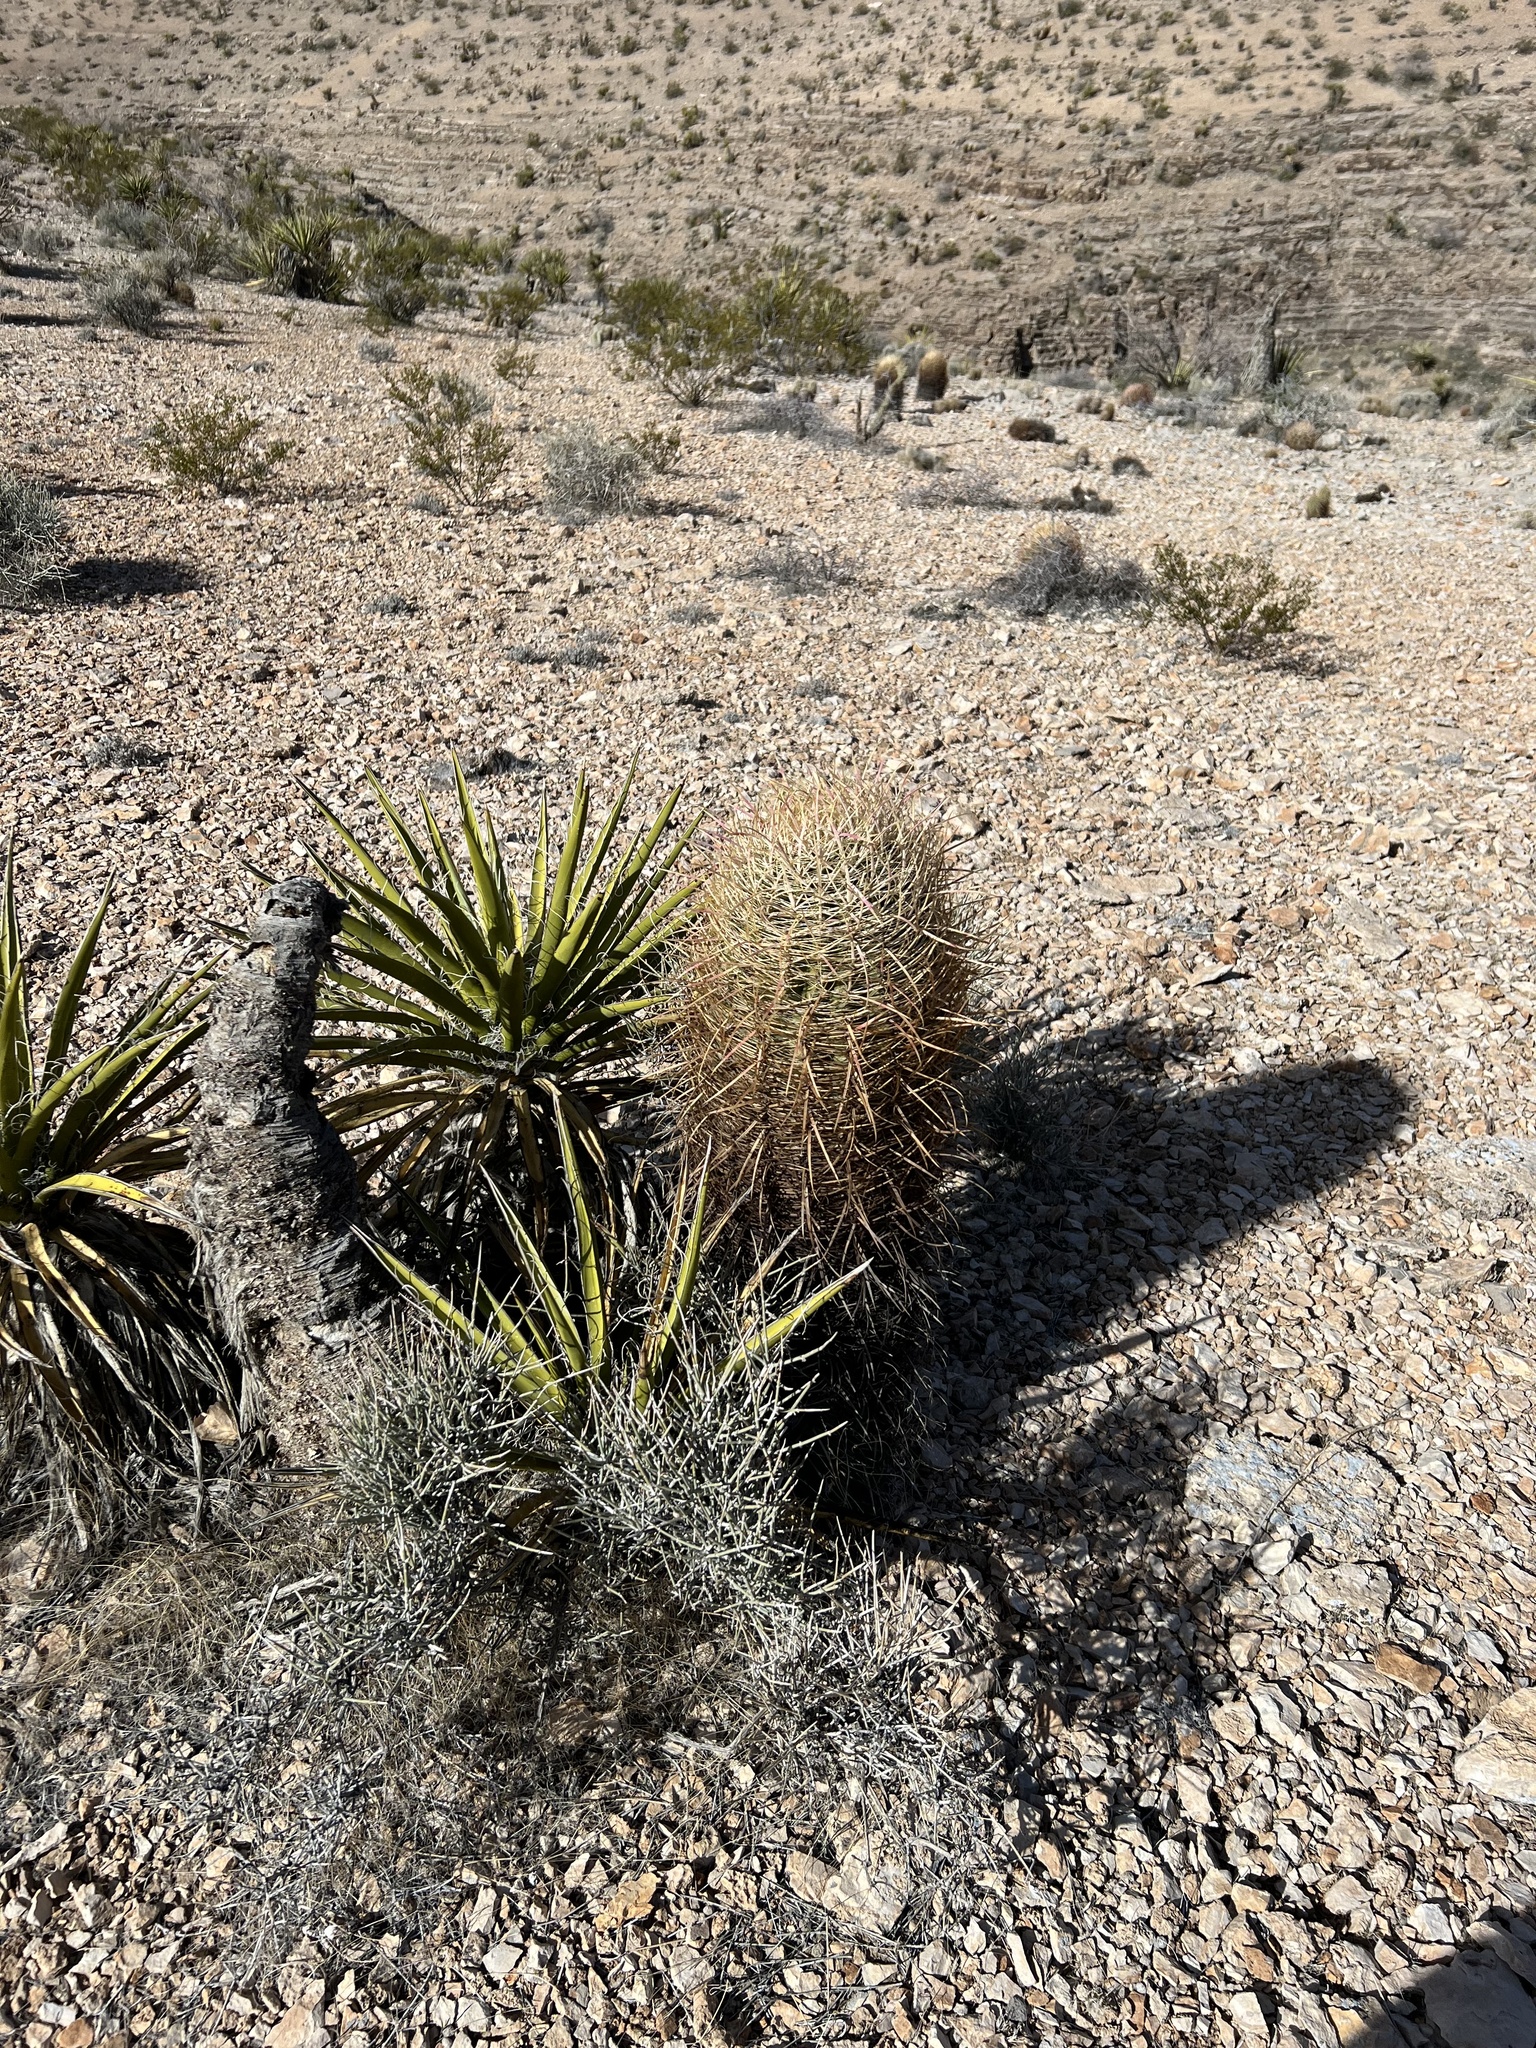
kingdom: Plantae
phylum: Tracheophyta
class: Magnoliopsida
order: Caryophyllales
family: Cactaceae
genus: Ferocactus
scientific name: Ferocactus cylindraceus
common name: California barrel cactus
